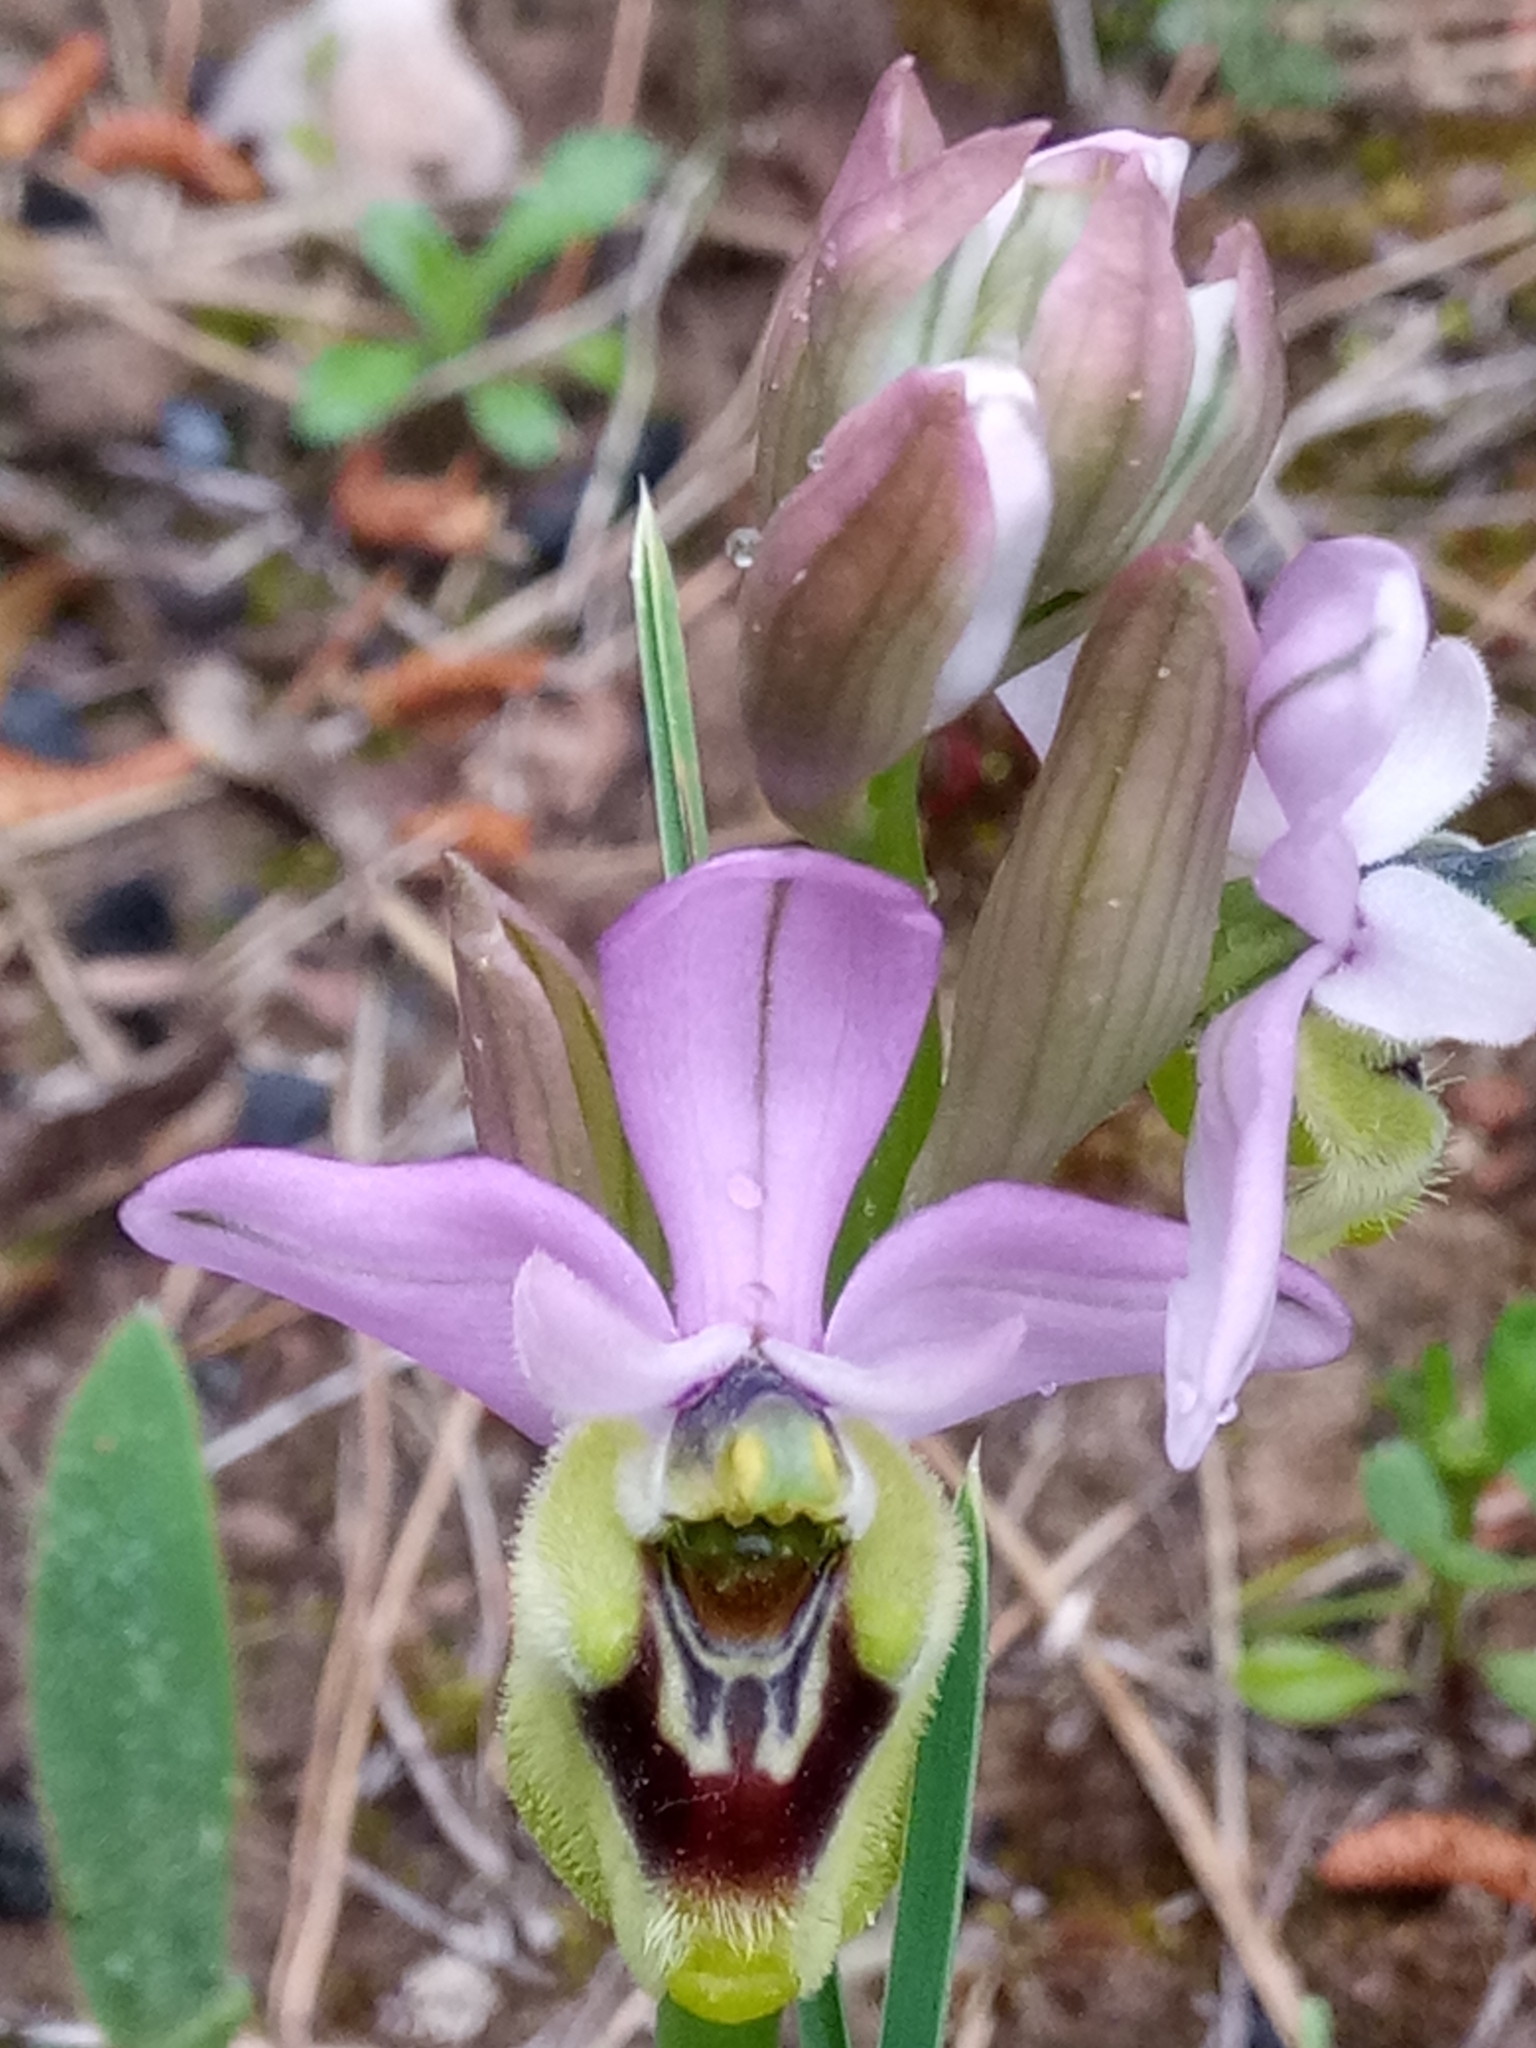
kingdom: Plantae
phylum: Tracheophyta
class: Liliopsida
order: Asparagales
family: Orchidaceae
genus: Ophrys
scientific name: Ophrys tenthredinifera
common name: Sawfly orchid
